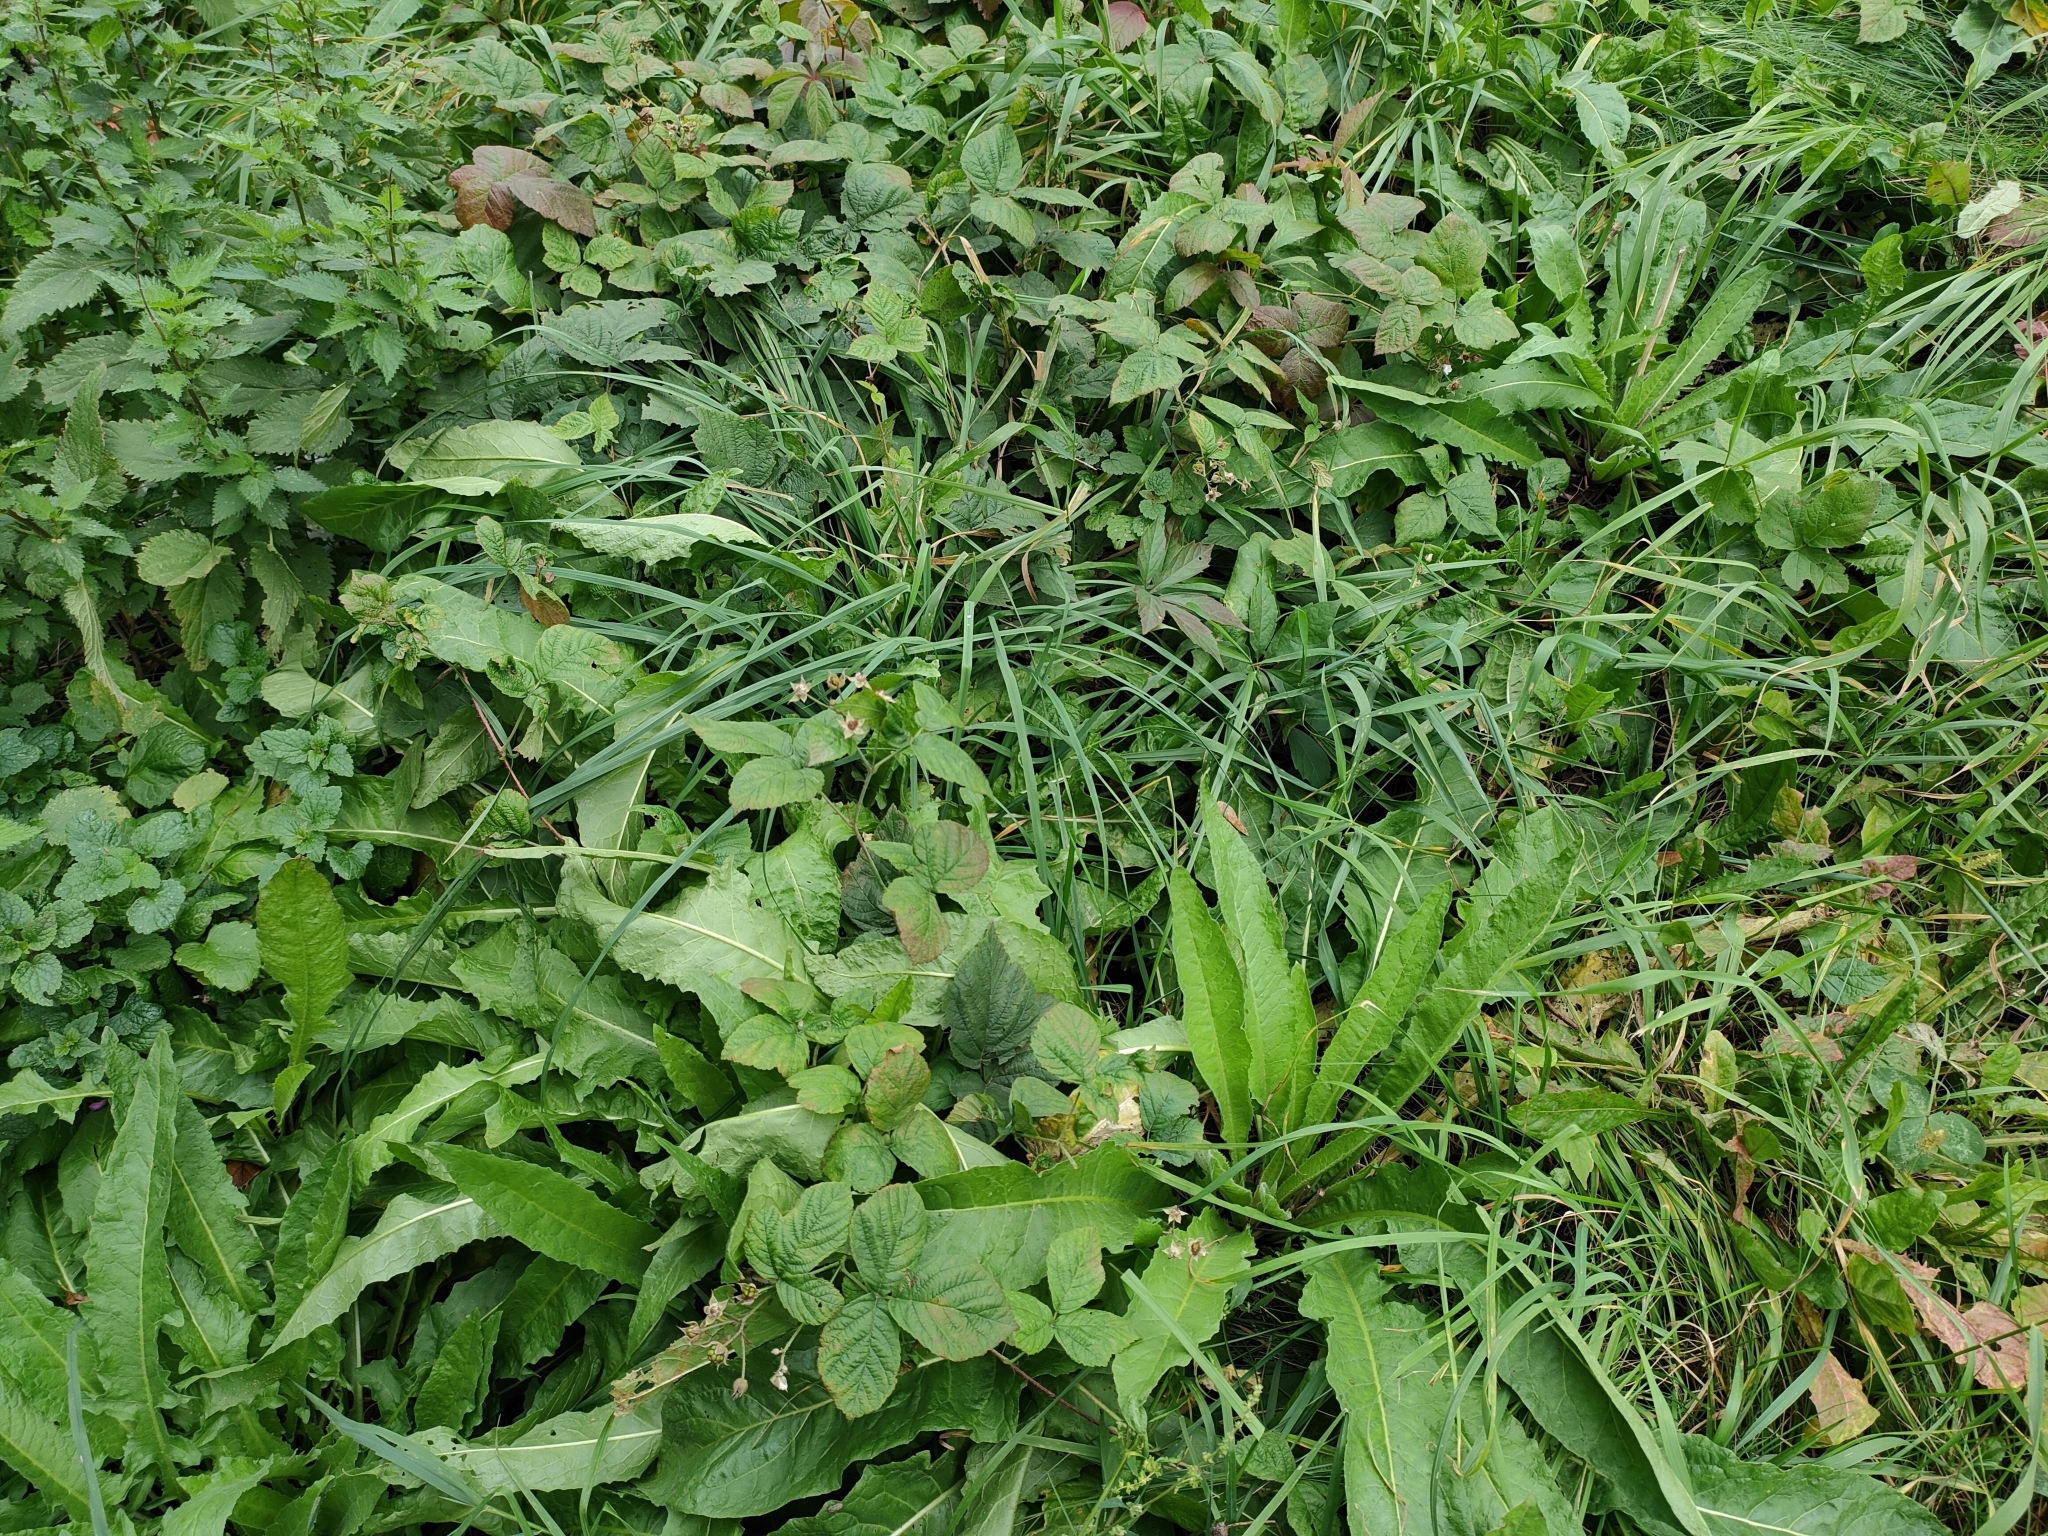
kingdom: Plantae
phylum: Tracheophyta
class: Magnoliopsida
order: Rosales
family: Rosaceae
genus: Rubus
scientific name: Rubus caesius
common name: Dewberry
